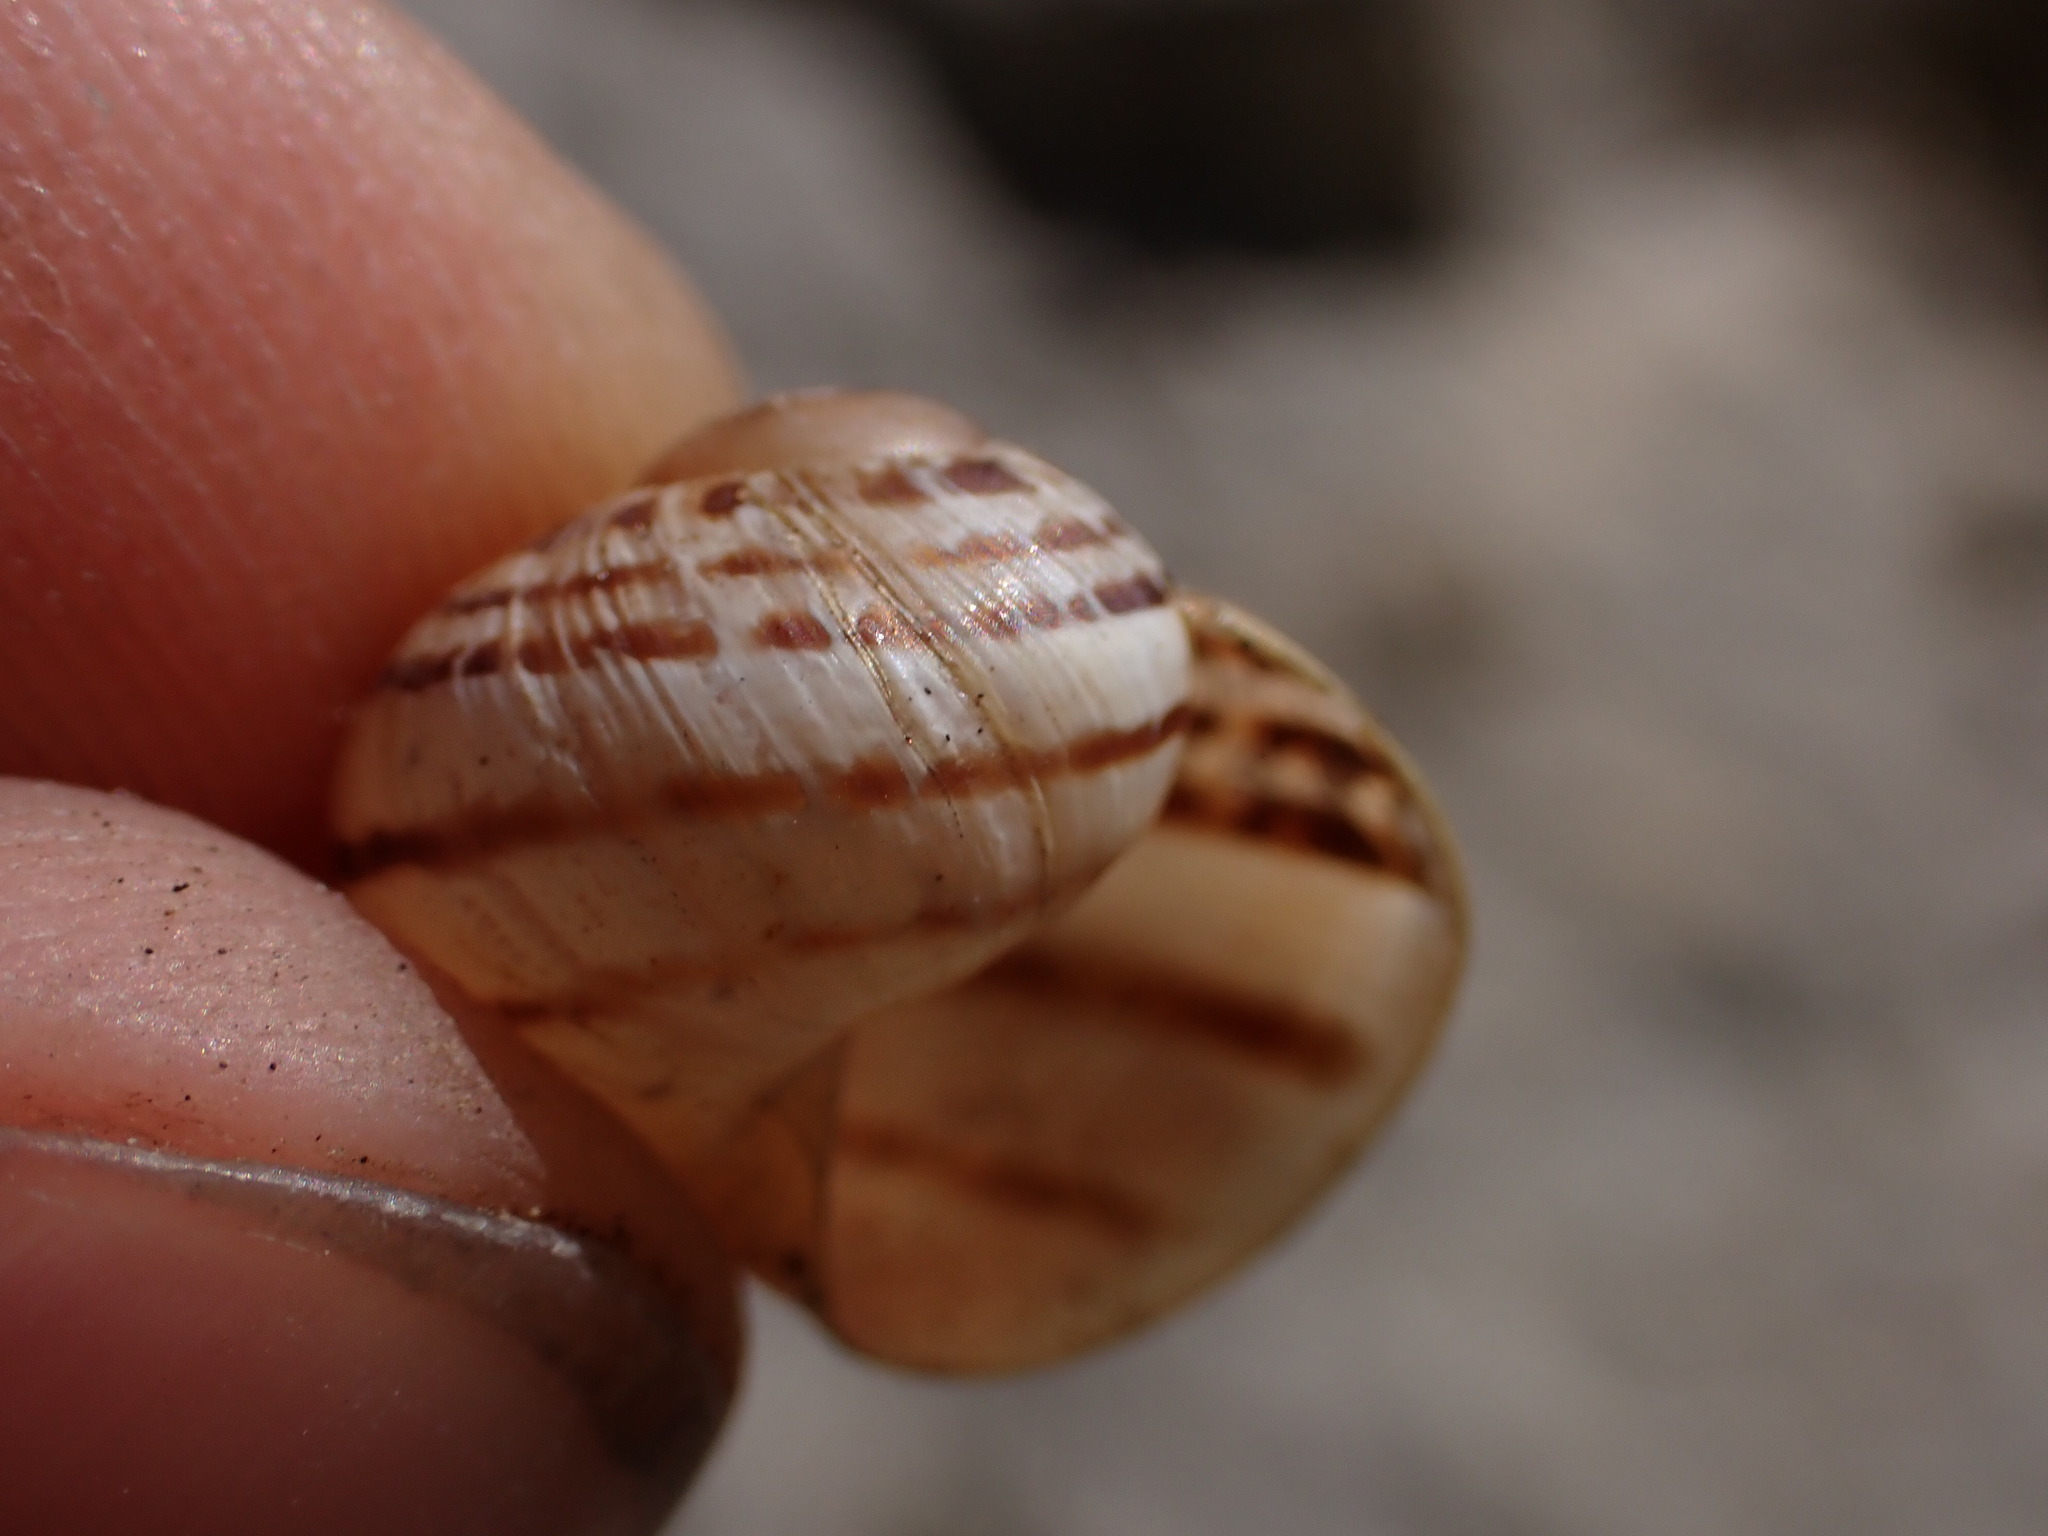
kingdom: Animalia
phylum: Mollusca
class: Gastropoda
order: Stylommatophora
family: Helicidae
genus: Cornu
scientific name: Cornu aspersum
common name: Brown garden snail
